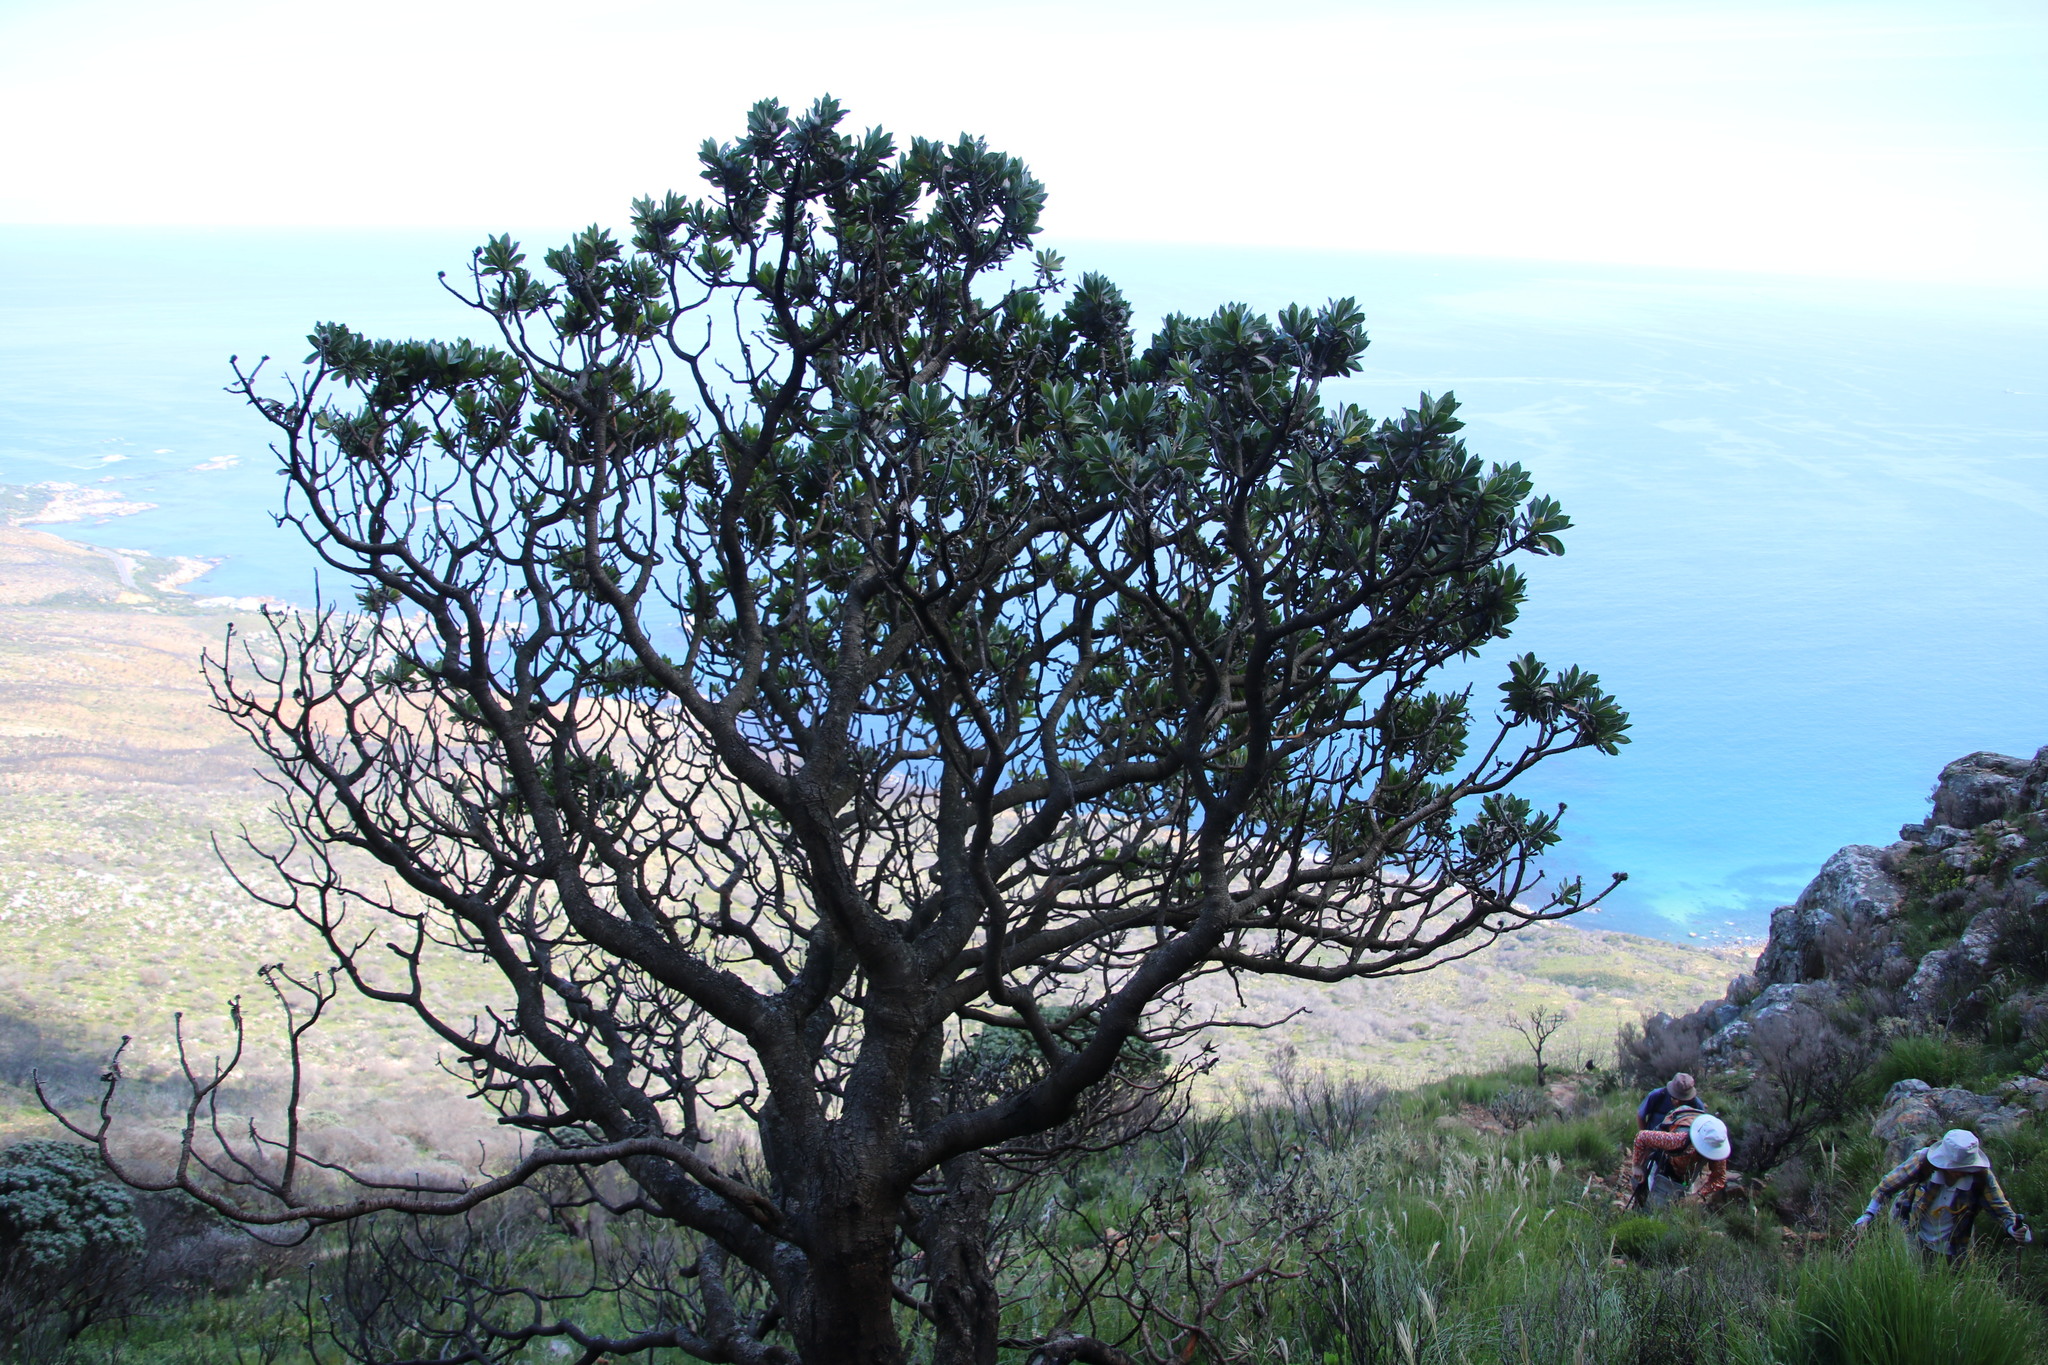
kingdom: Plantae
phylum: Tracheophyta
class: Magnoliopsida
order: Proteales
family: Proteaceae
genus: Leucospermum
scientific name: Leucospermum conocarpodendron
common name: Tree pincushion
